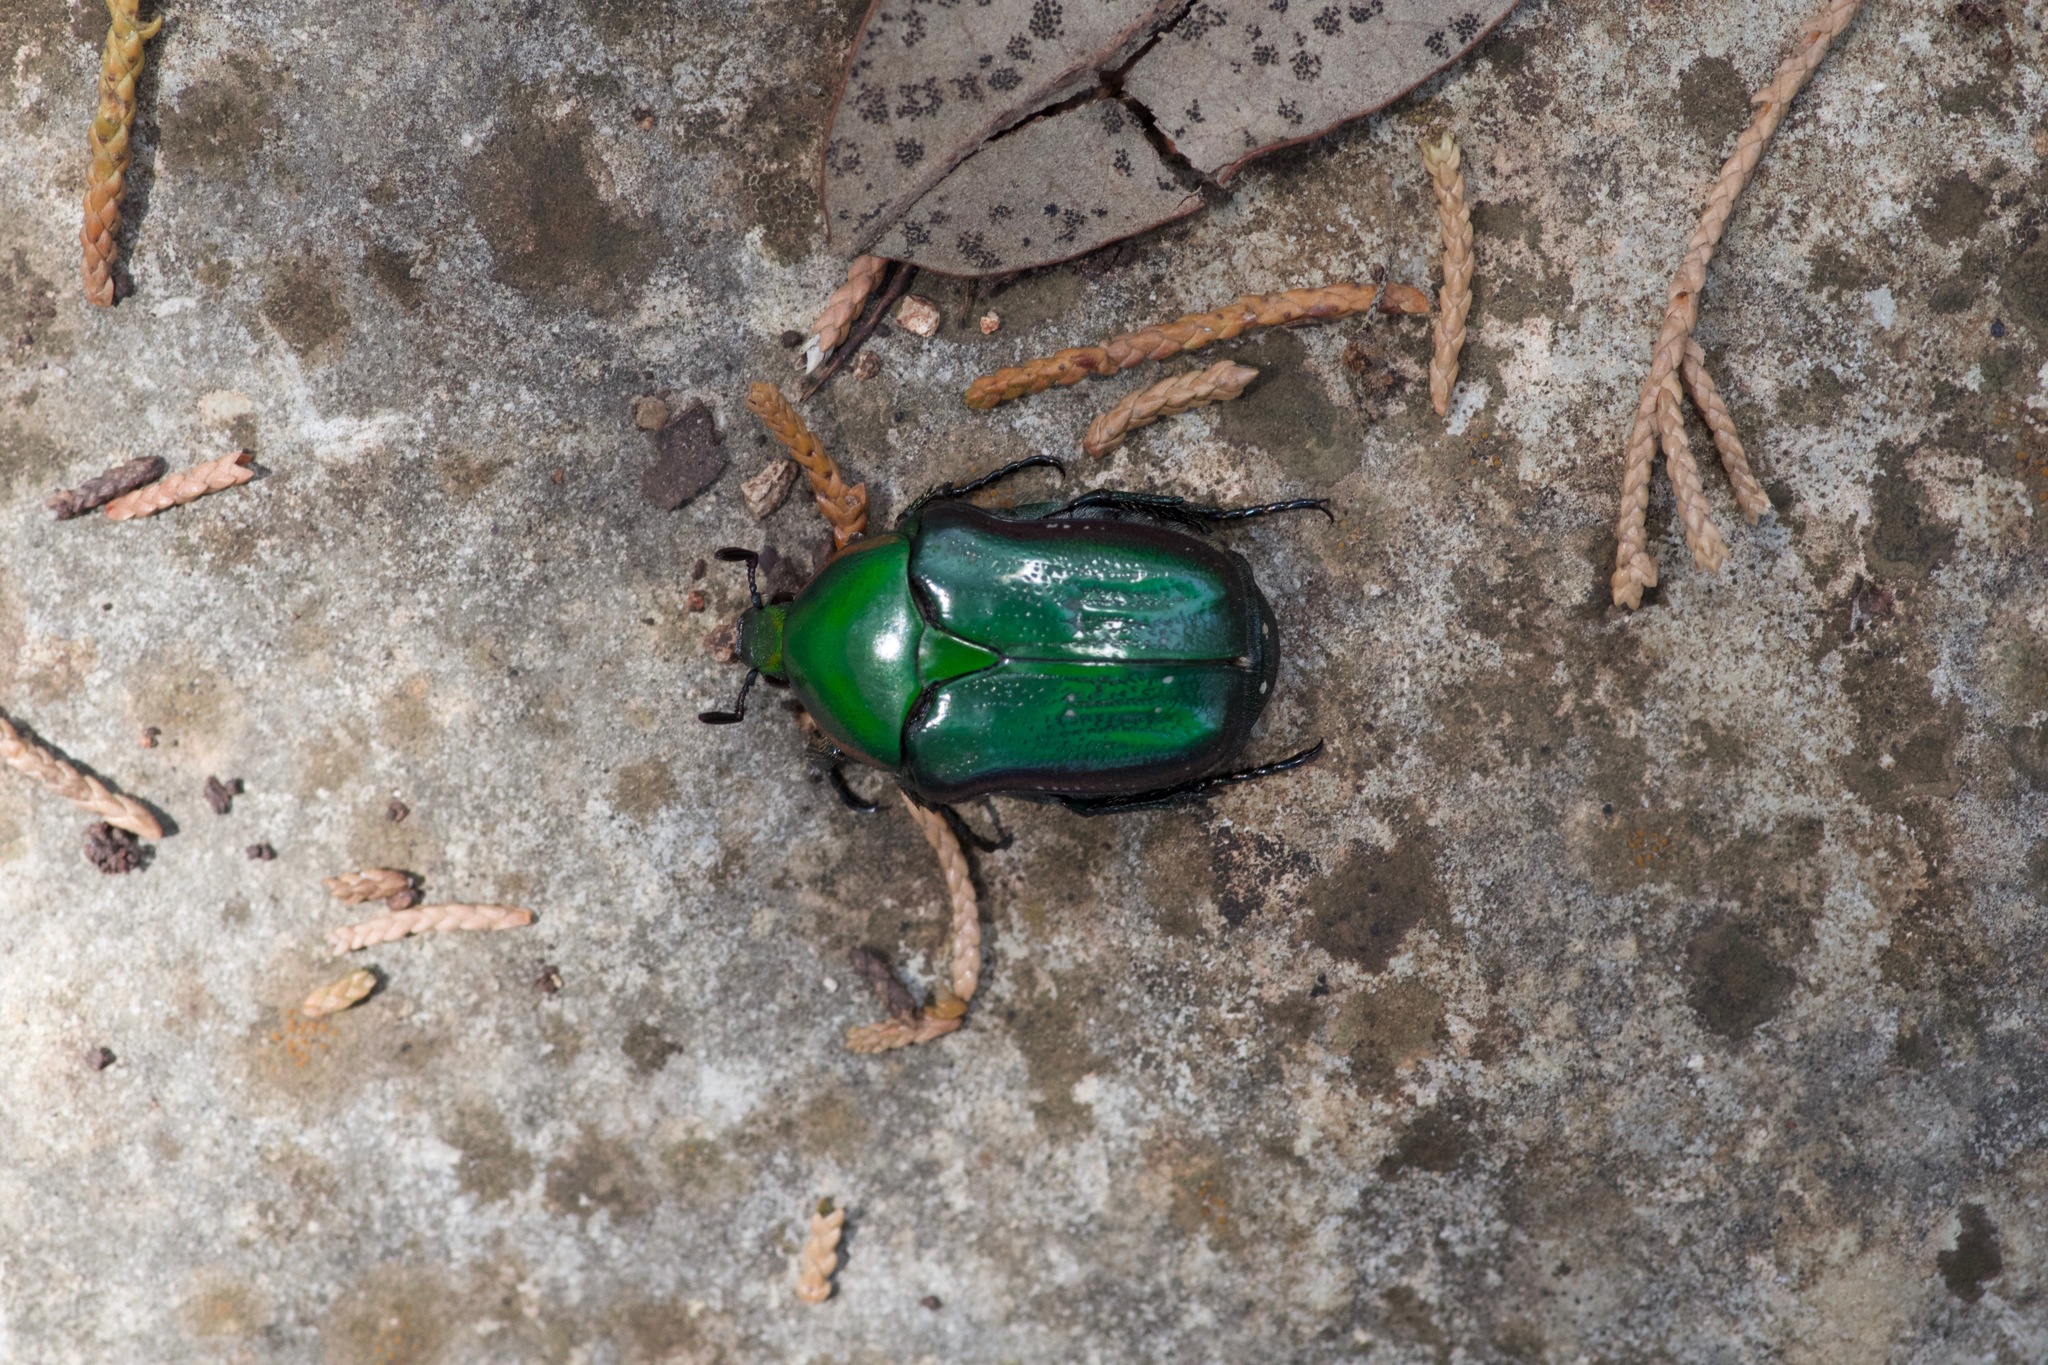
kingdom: Animalia
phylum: Arthropoda
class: Insecta
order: Coleoptera
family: Scarabaeidae
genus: Euphoria
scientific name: Euphoria fulgida
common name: Emerald euphoria
